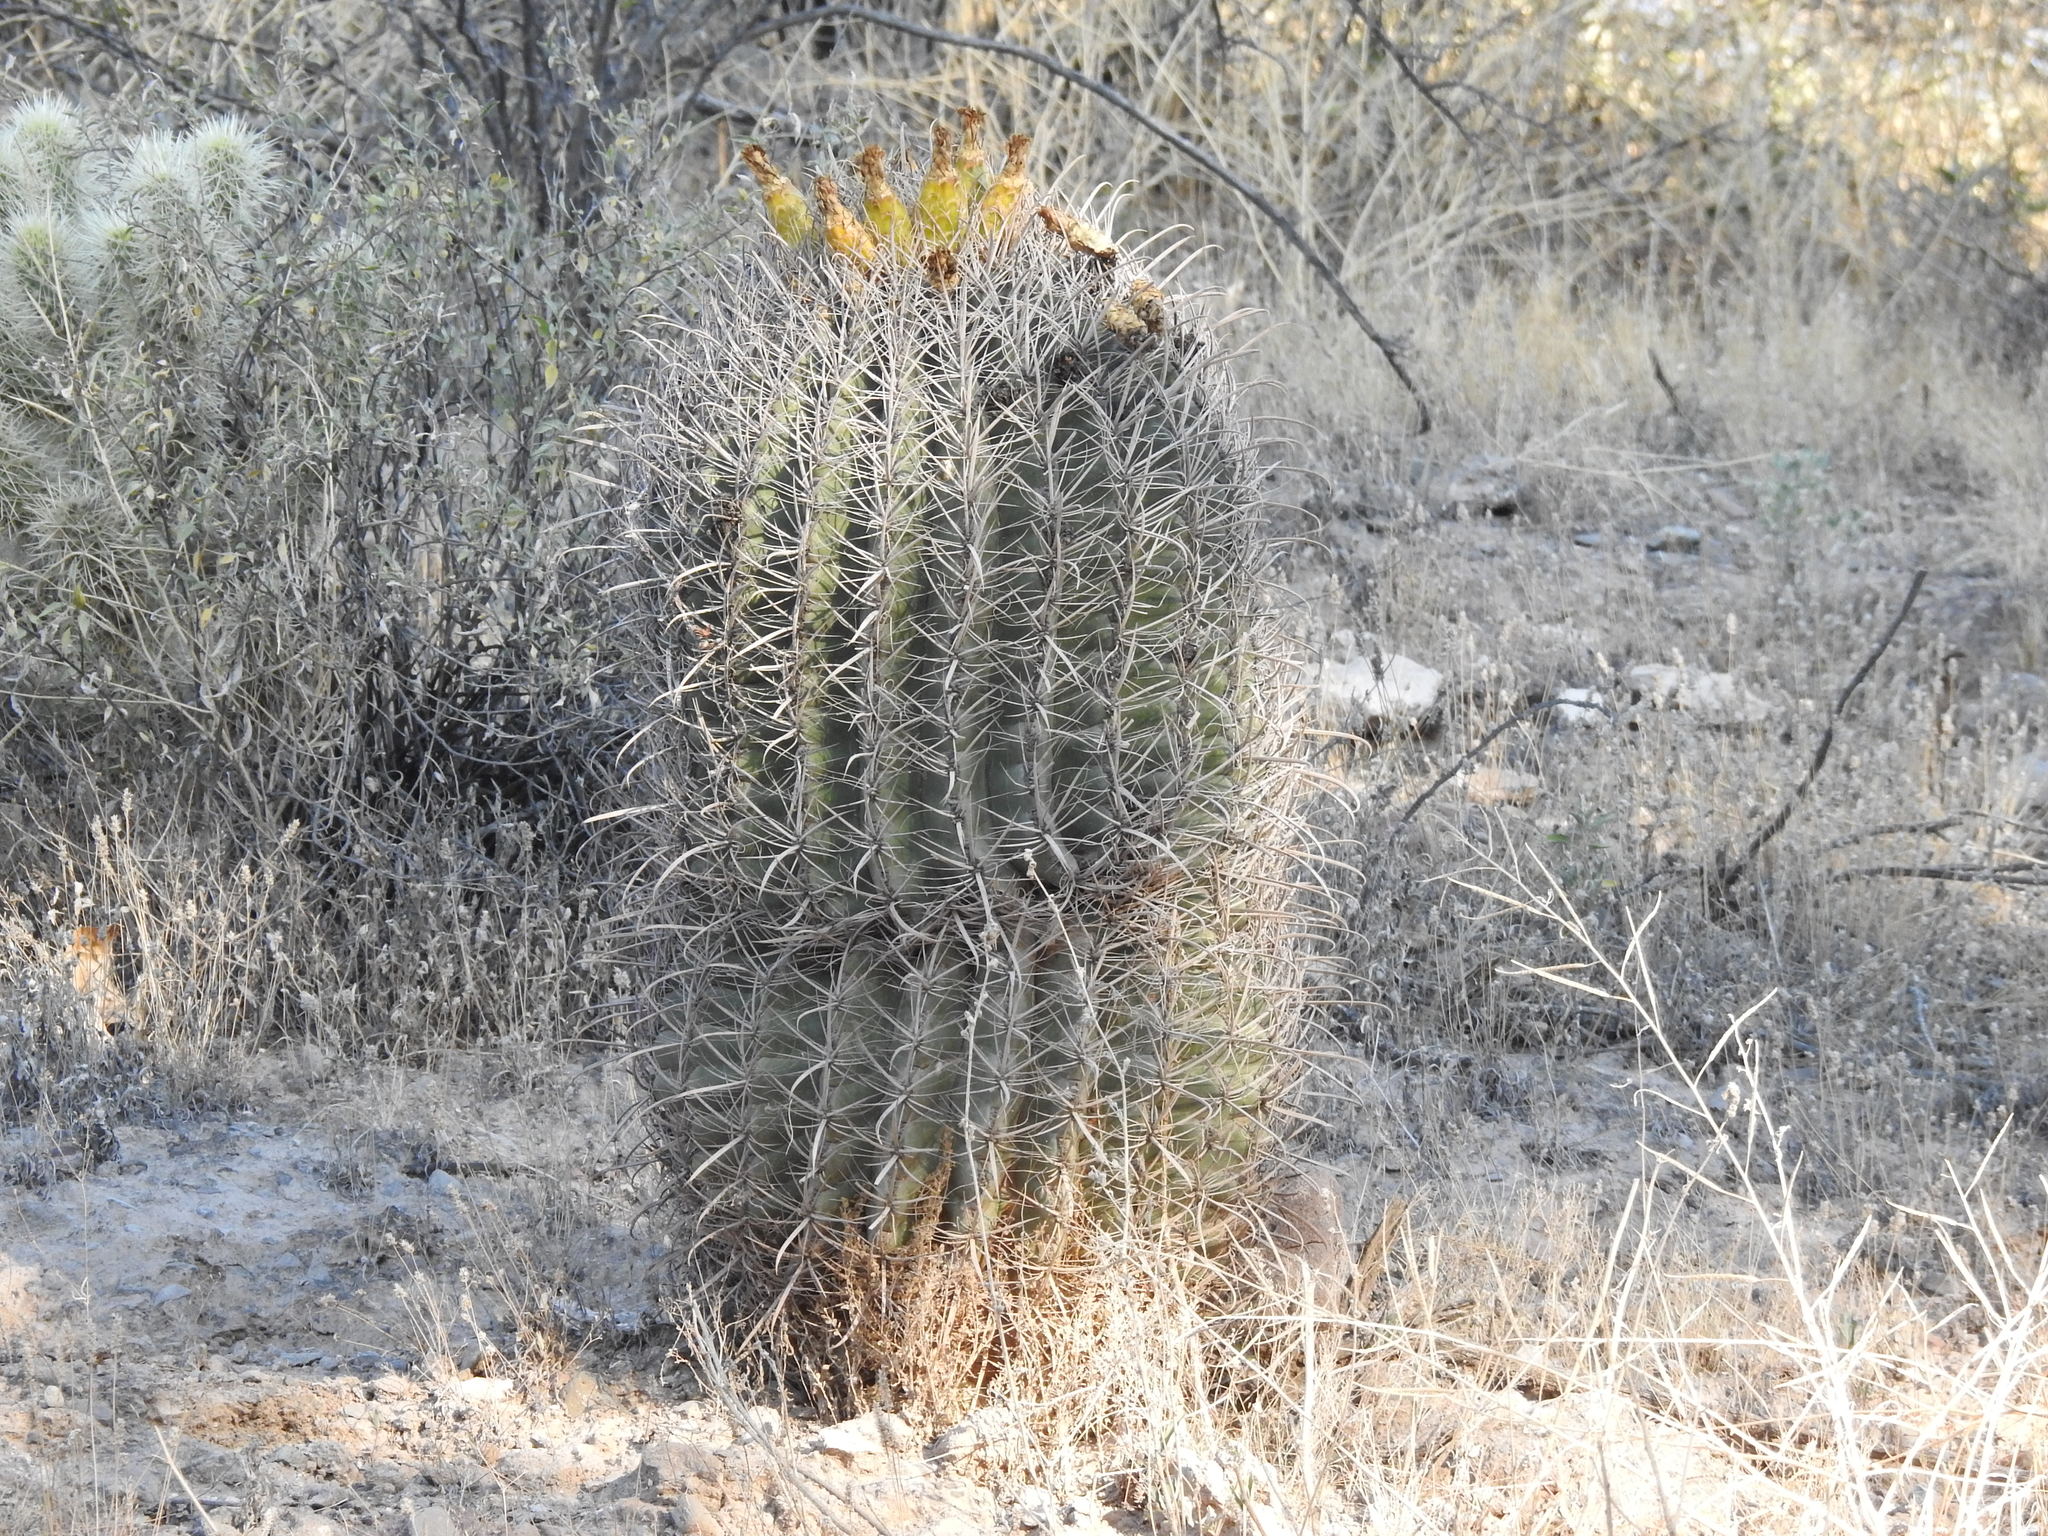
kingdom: Plantae
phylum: Tracheophyta
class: Magnoliopsida
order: Caryophyllales
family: Cactaceae
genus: Ferocactus
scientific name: Ferocactus wislizeni
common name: Candy barrel cactus
